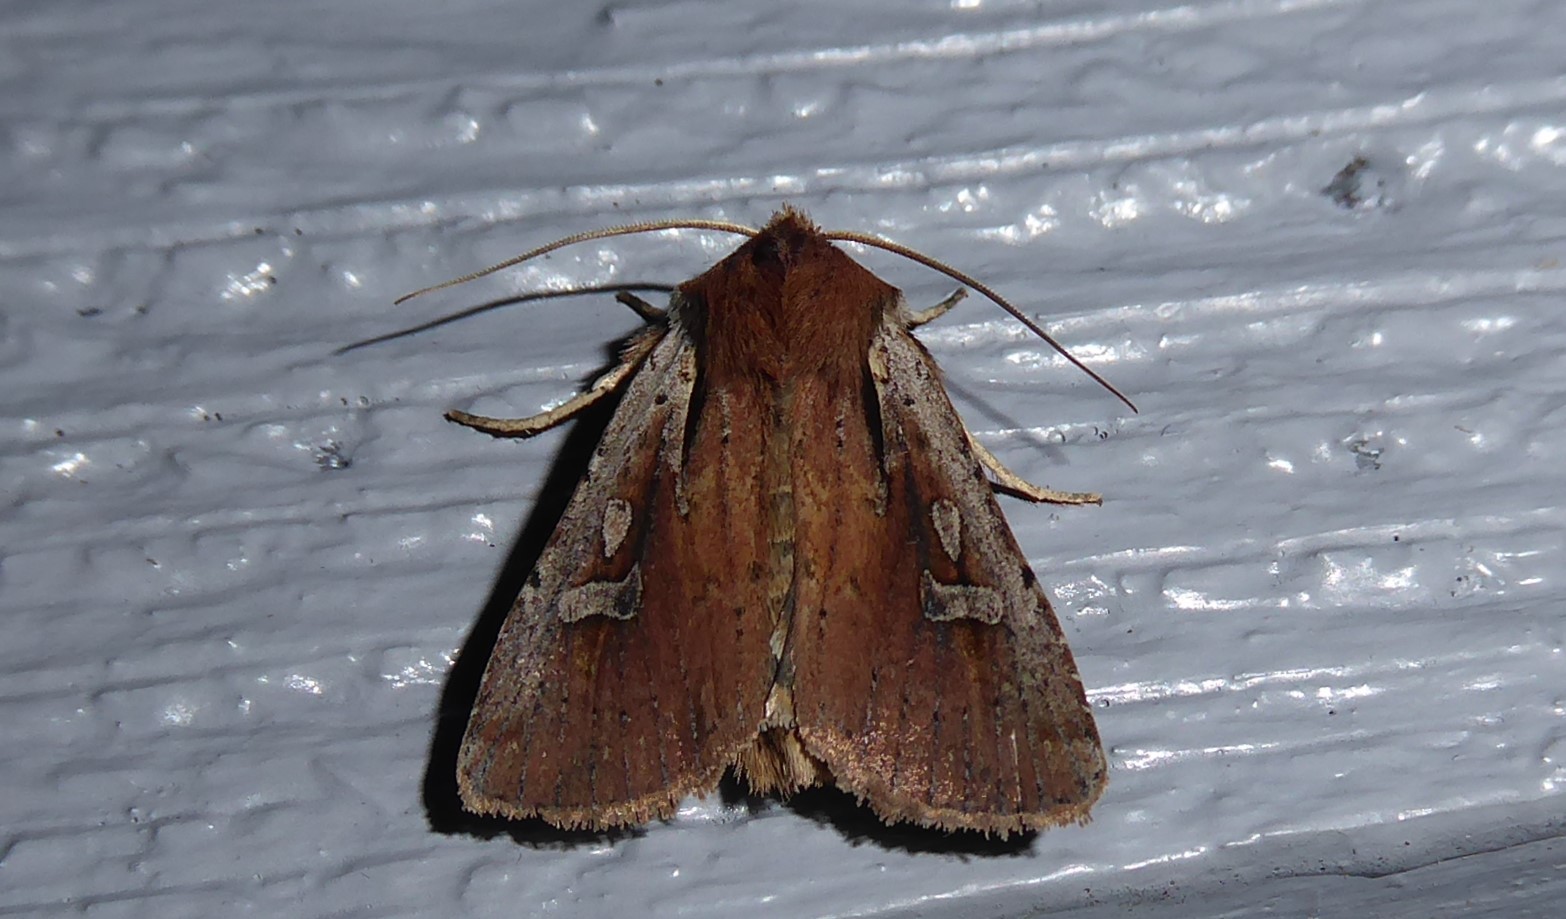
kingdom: Animalia
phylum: Arthropoda
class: Insecta
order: Lepidoptera
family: Noctuidae
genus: Ichneutica
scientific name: Ichneutica atristriga
